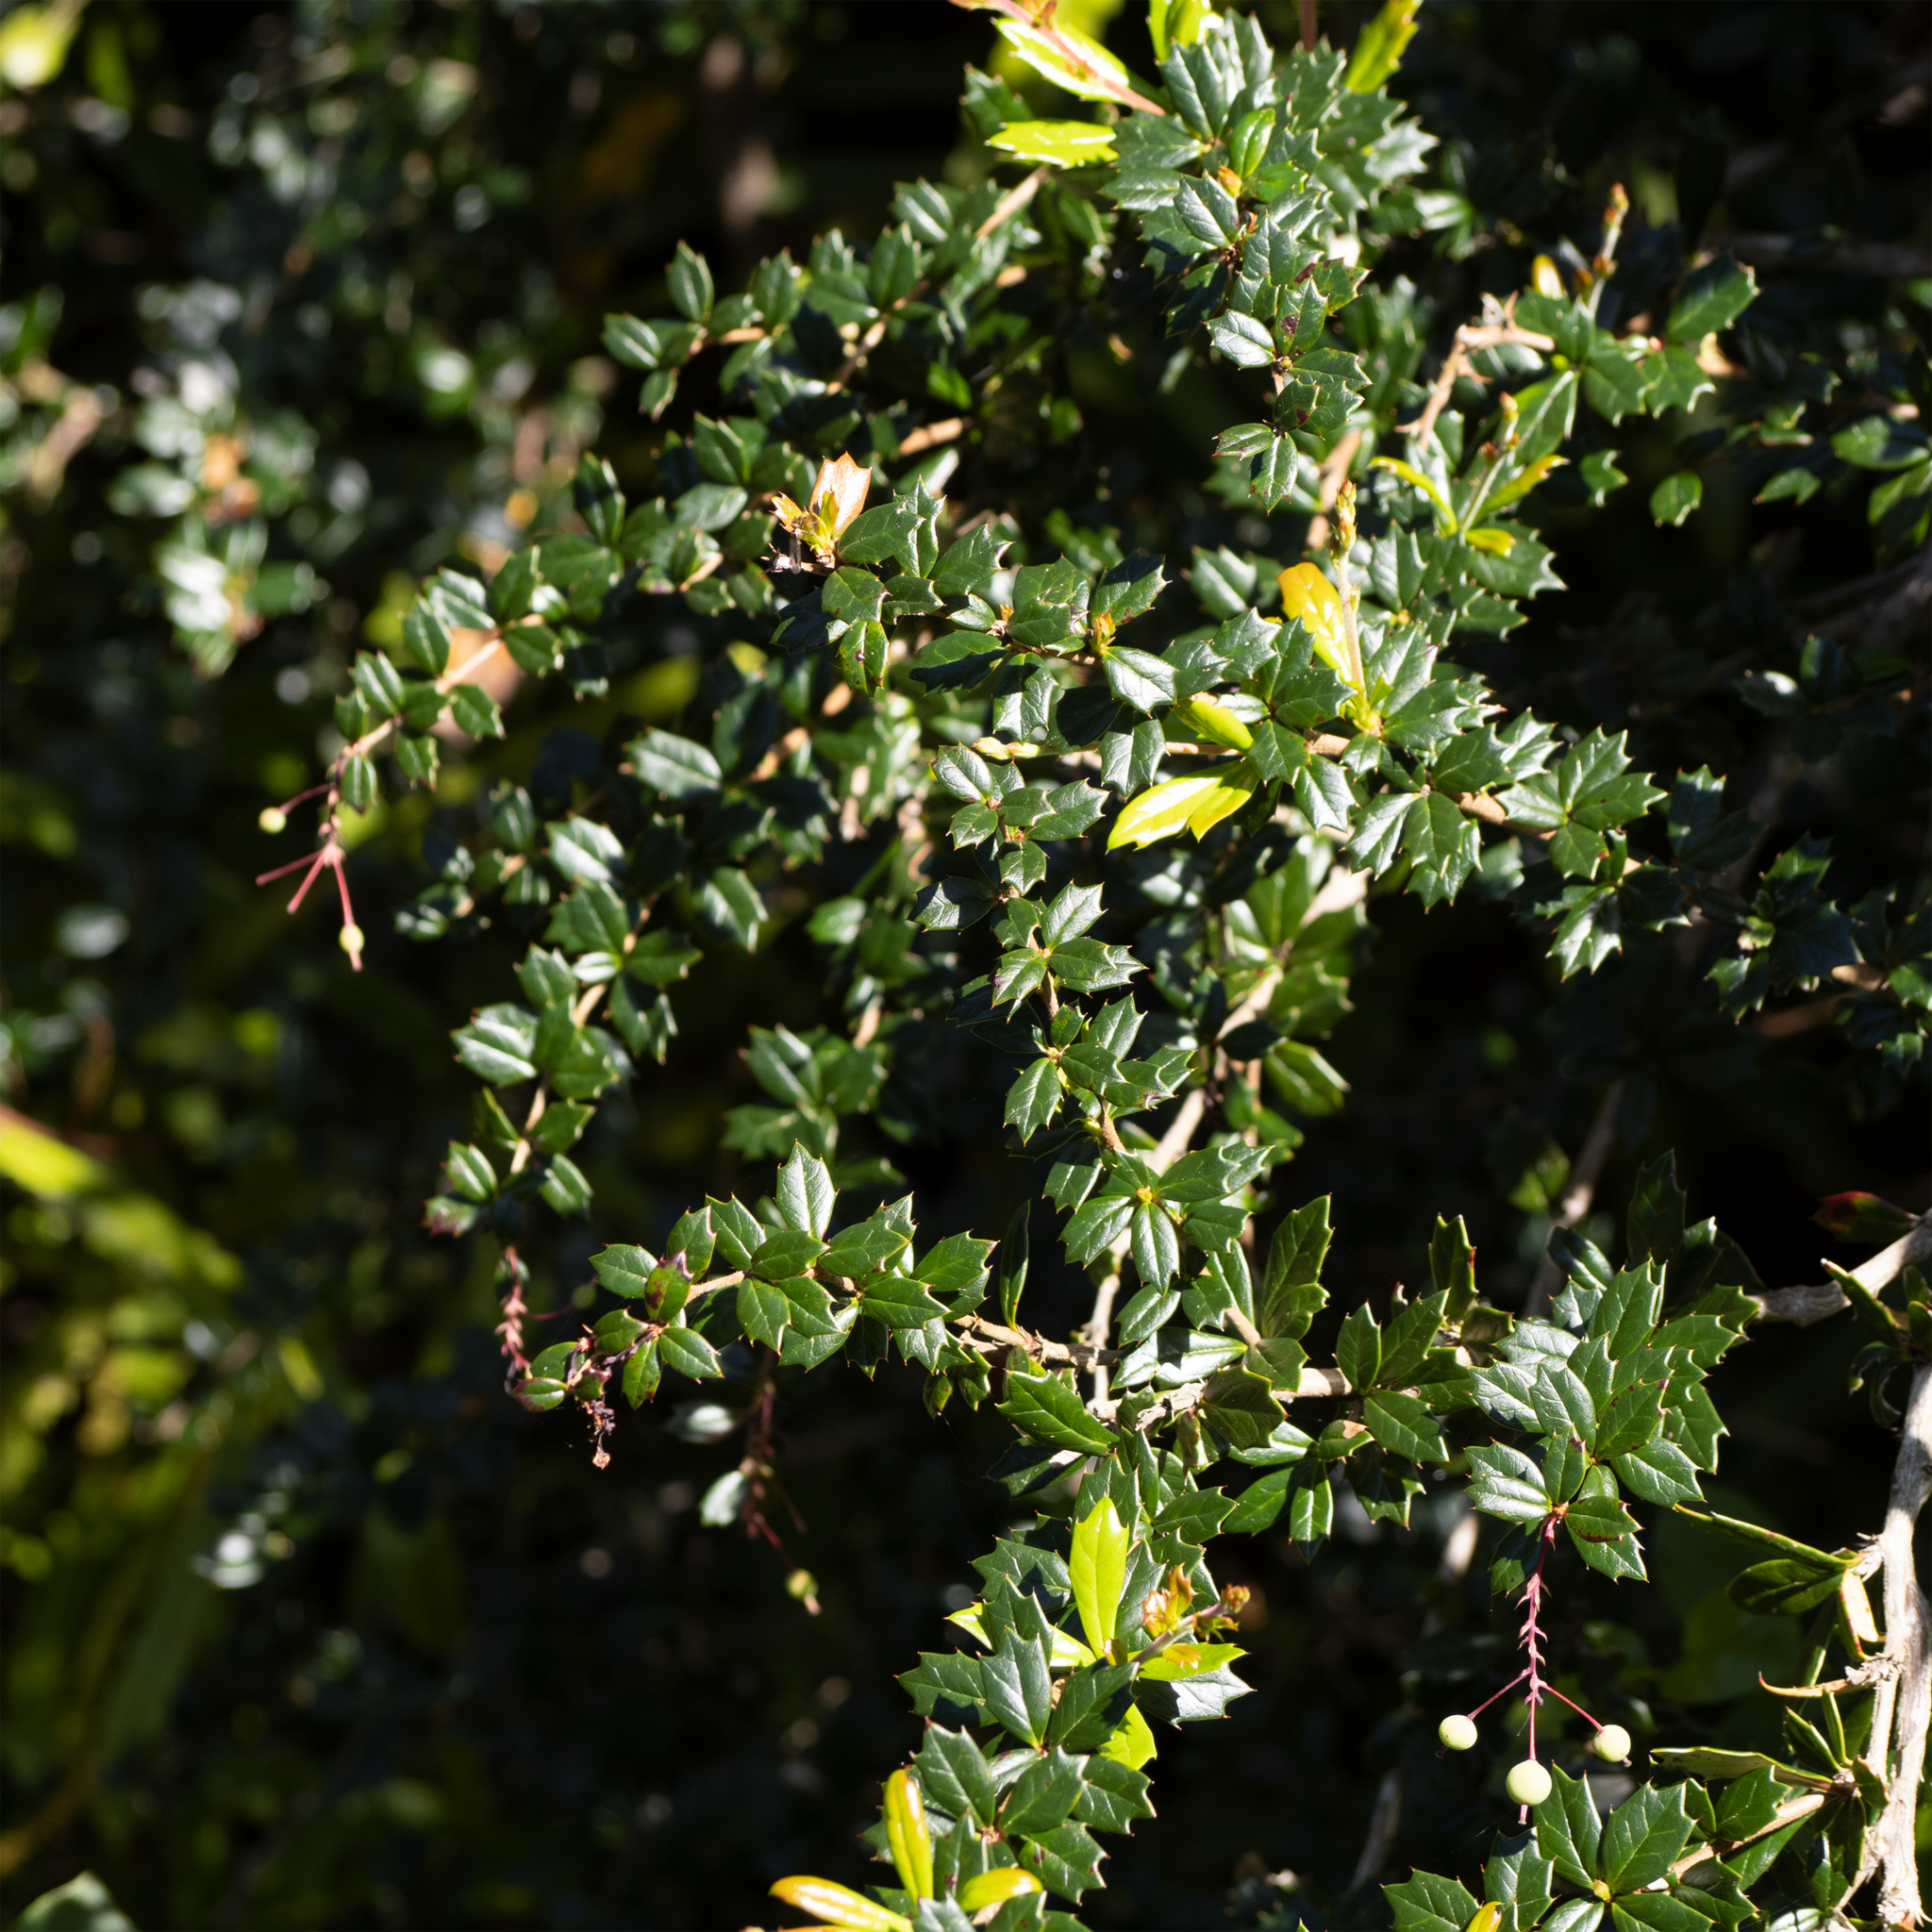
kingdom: Plantae
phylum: Tracheophyta
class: Magnoliopsida
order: Ranunculales
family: Berberidaceae
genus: Berberis
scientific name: Berberis darwinii
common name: Darwin's barberry
